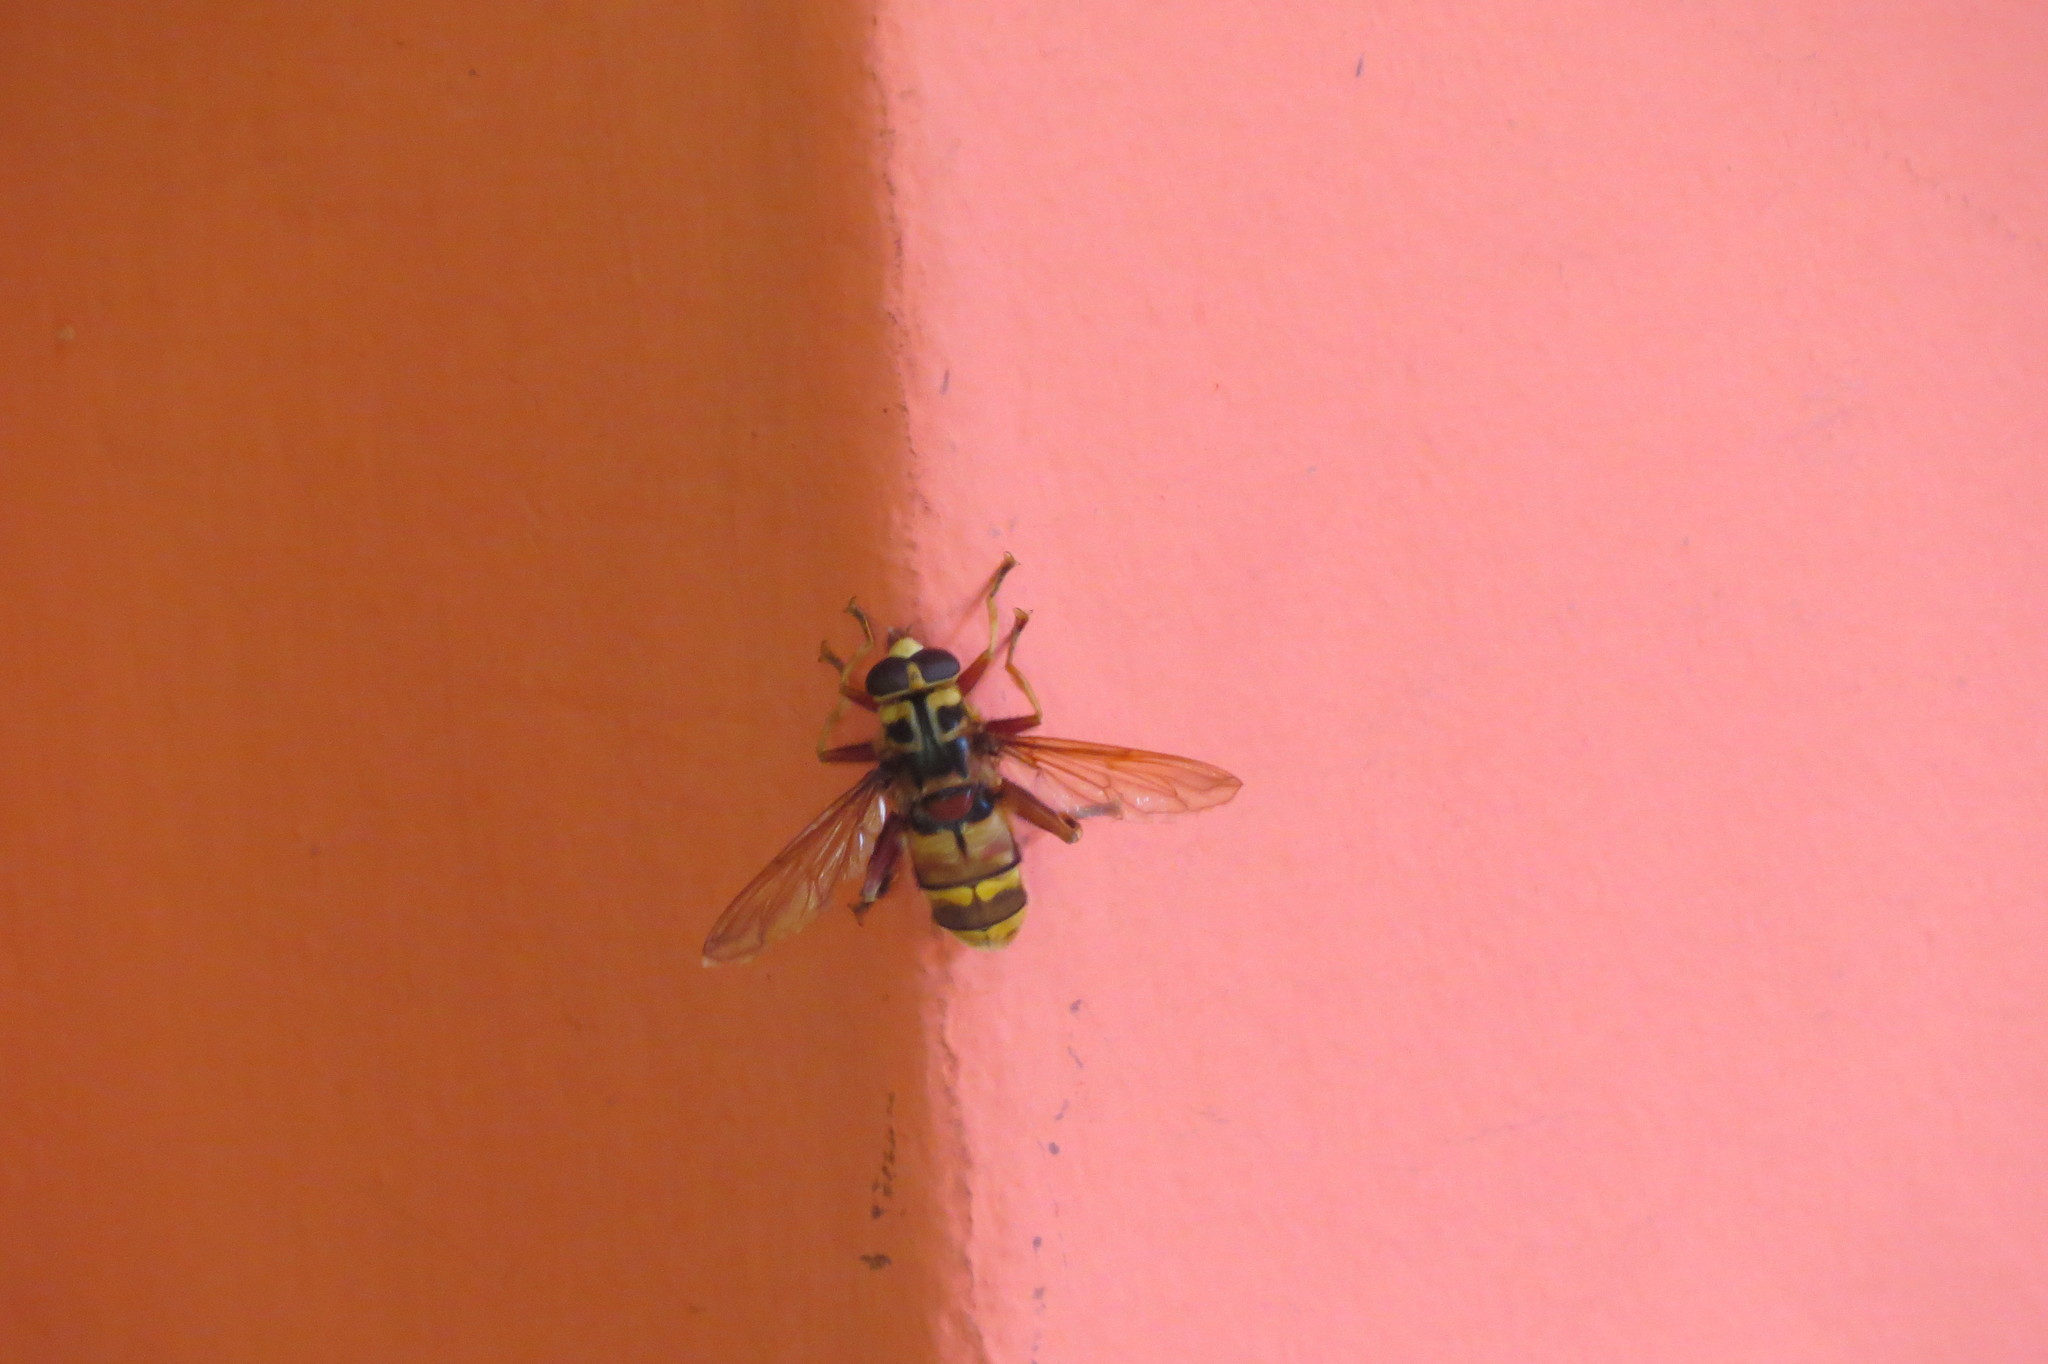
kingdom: Animalia
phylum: Arthropoda
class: Insecta
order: Diptera
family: Syrphidae
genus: Milesia
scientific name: Milesia crabroniformis
